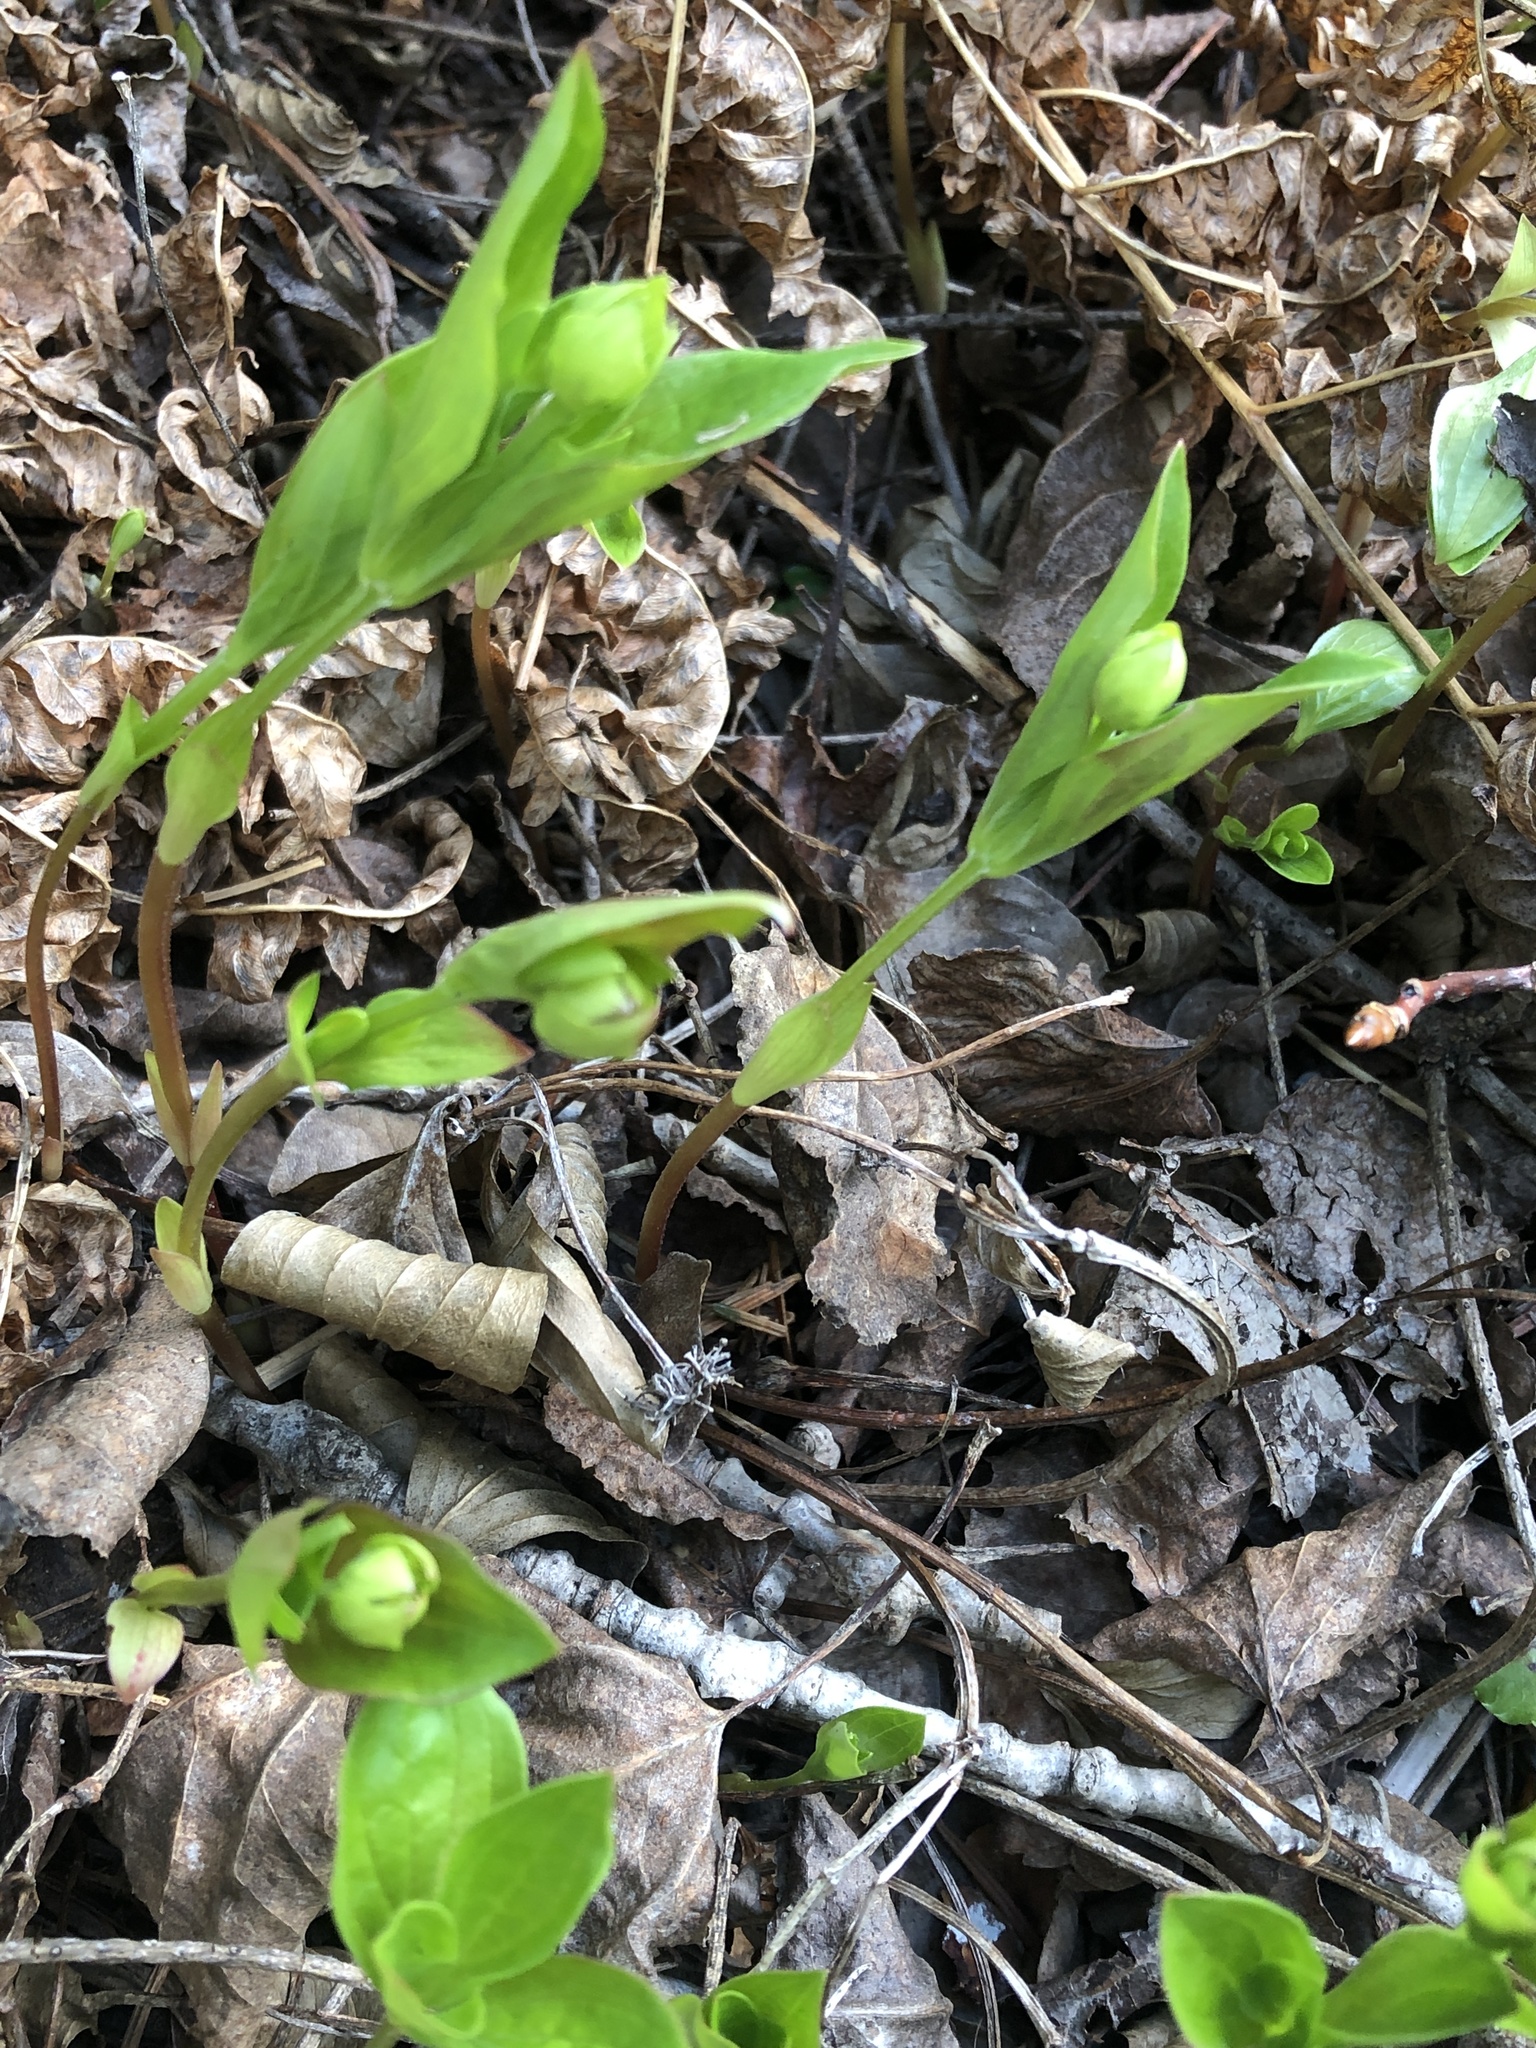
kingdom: Plantae
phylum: Tracheophyta
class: Magnoliopsida
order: Cornales
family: Cornaceae
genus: Cornus
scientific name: Cornus canadensis
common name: Creeping dogwood
